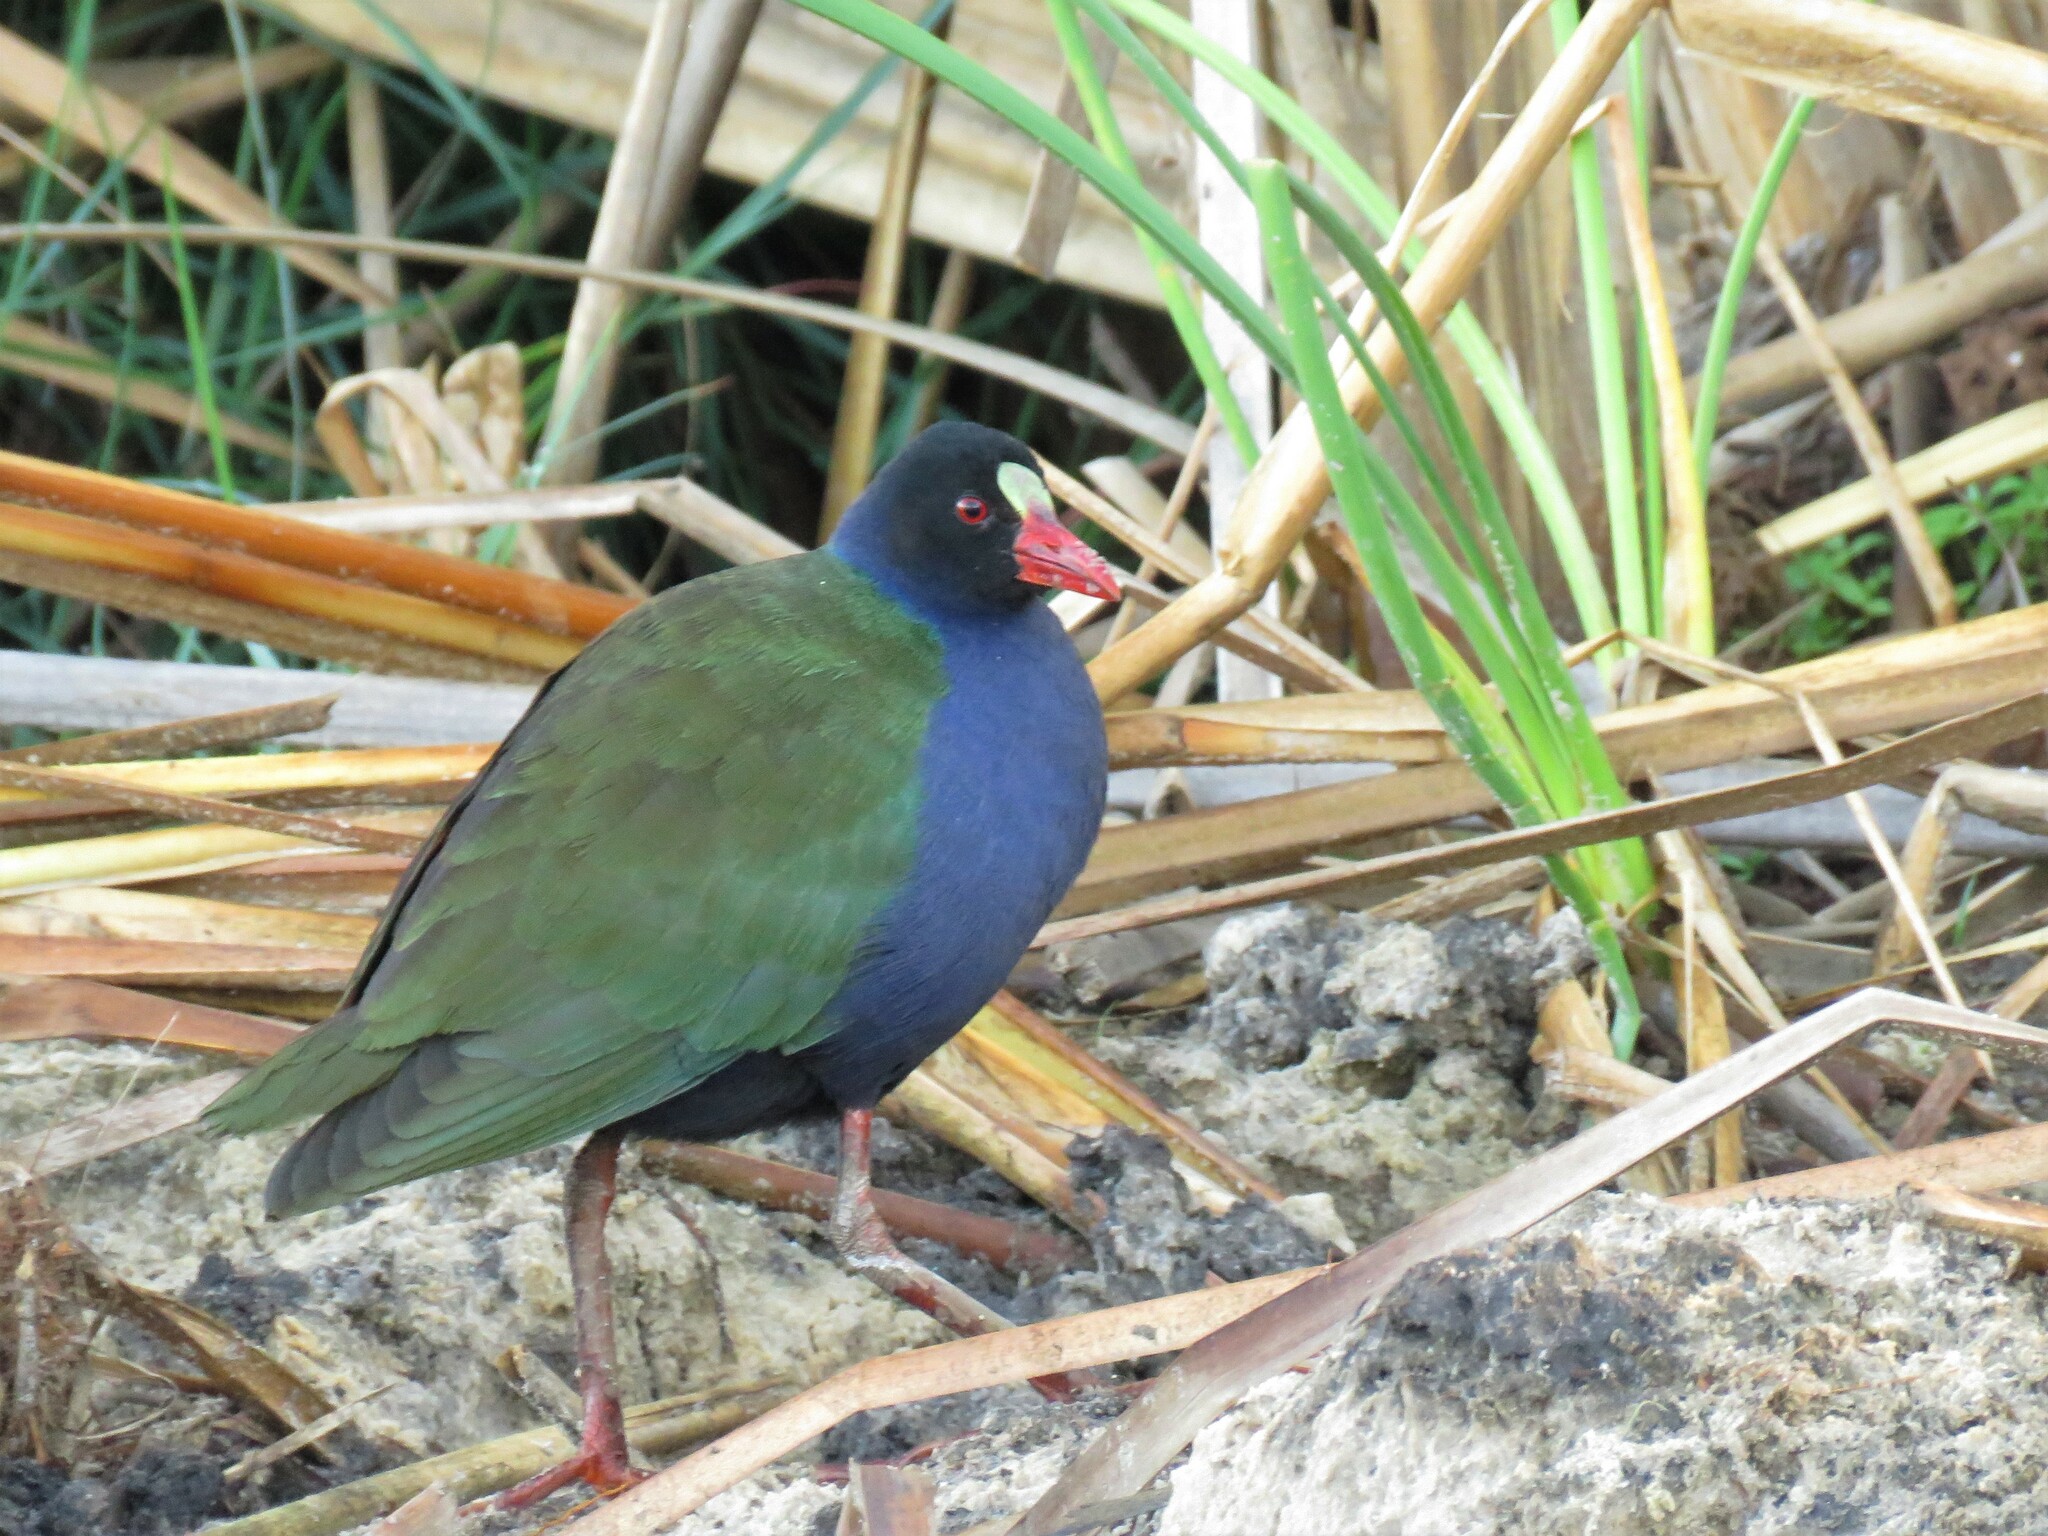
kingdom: Animalia
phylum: Chordata
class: Aves
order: Gruiformes
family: Rallidae
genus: Porphyrio
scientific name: Porphyrio alleni
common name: Allen's gallinule
